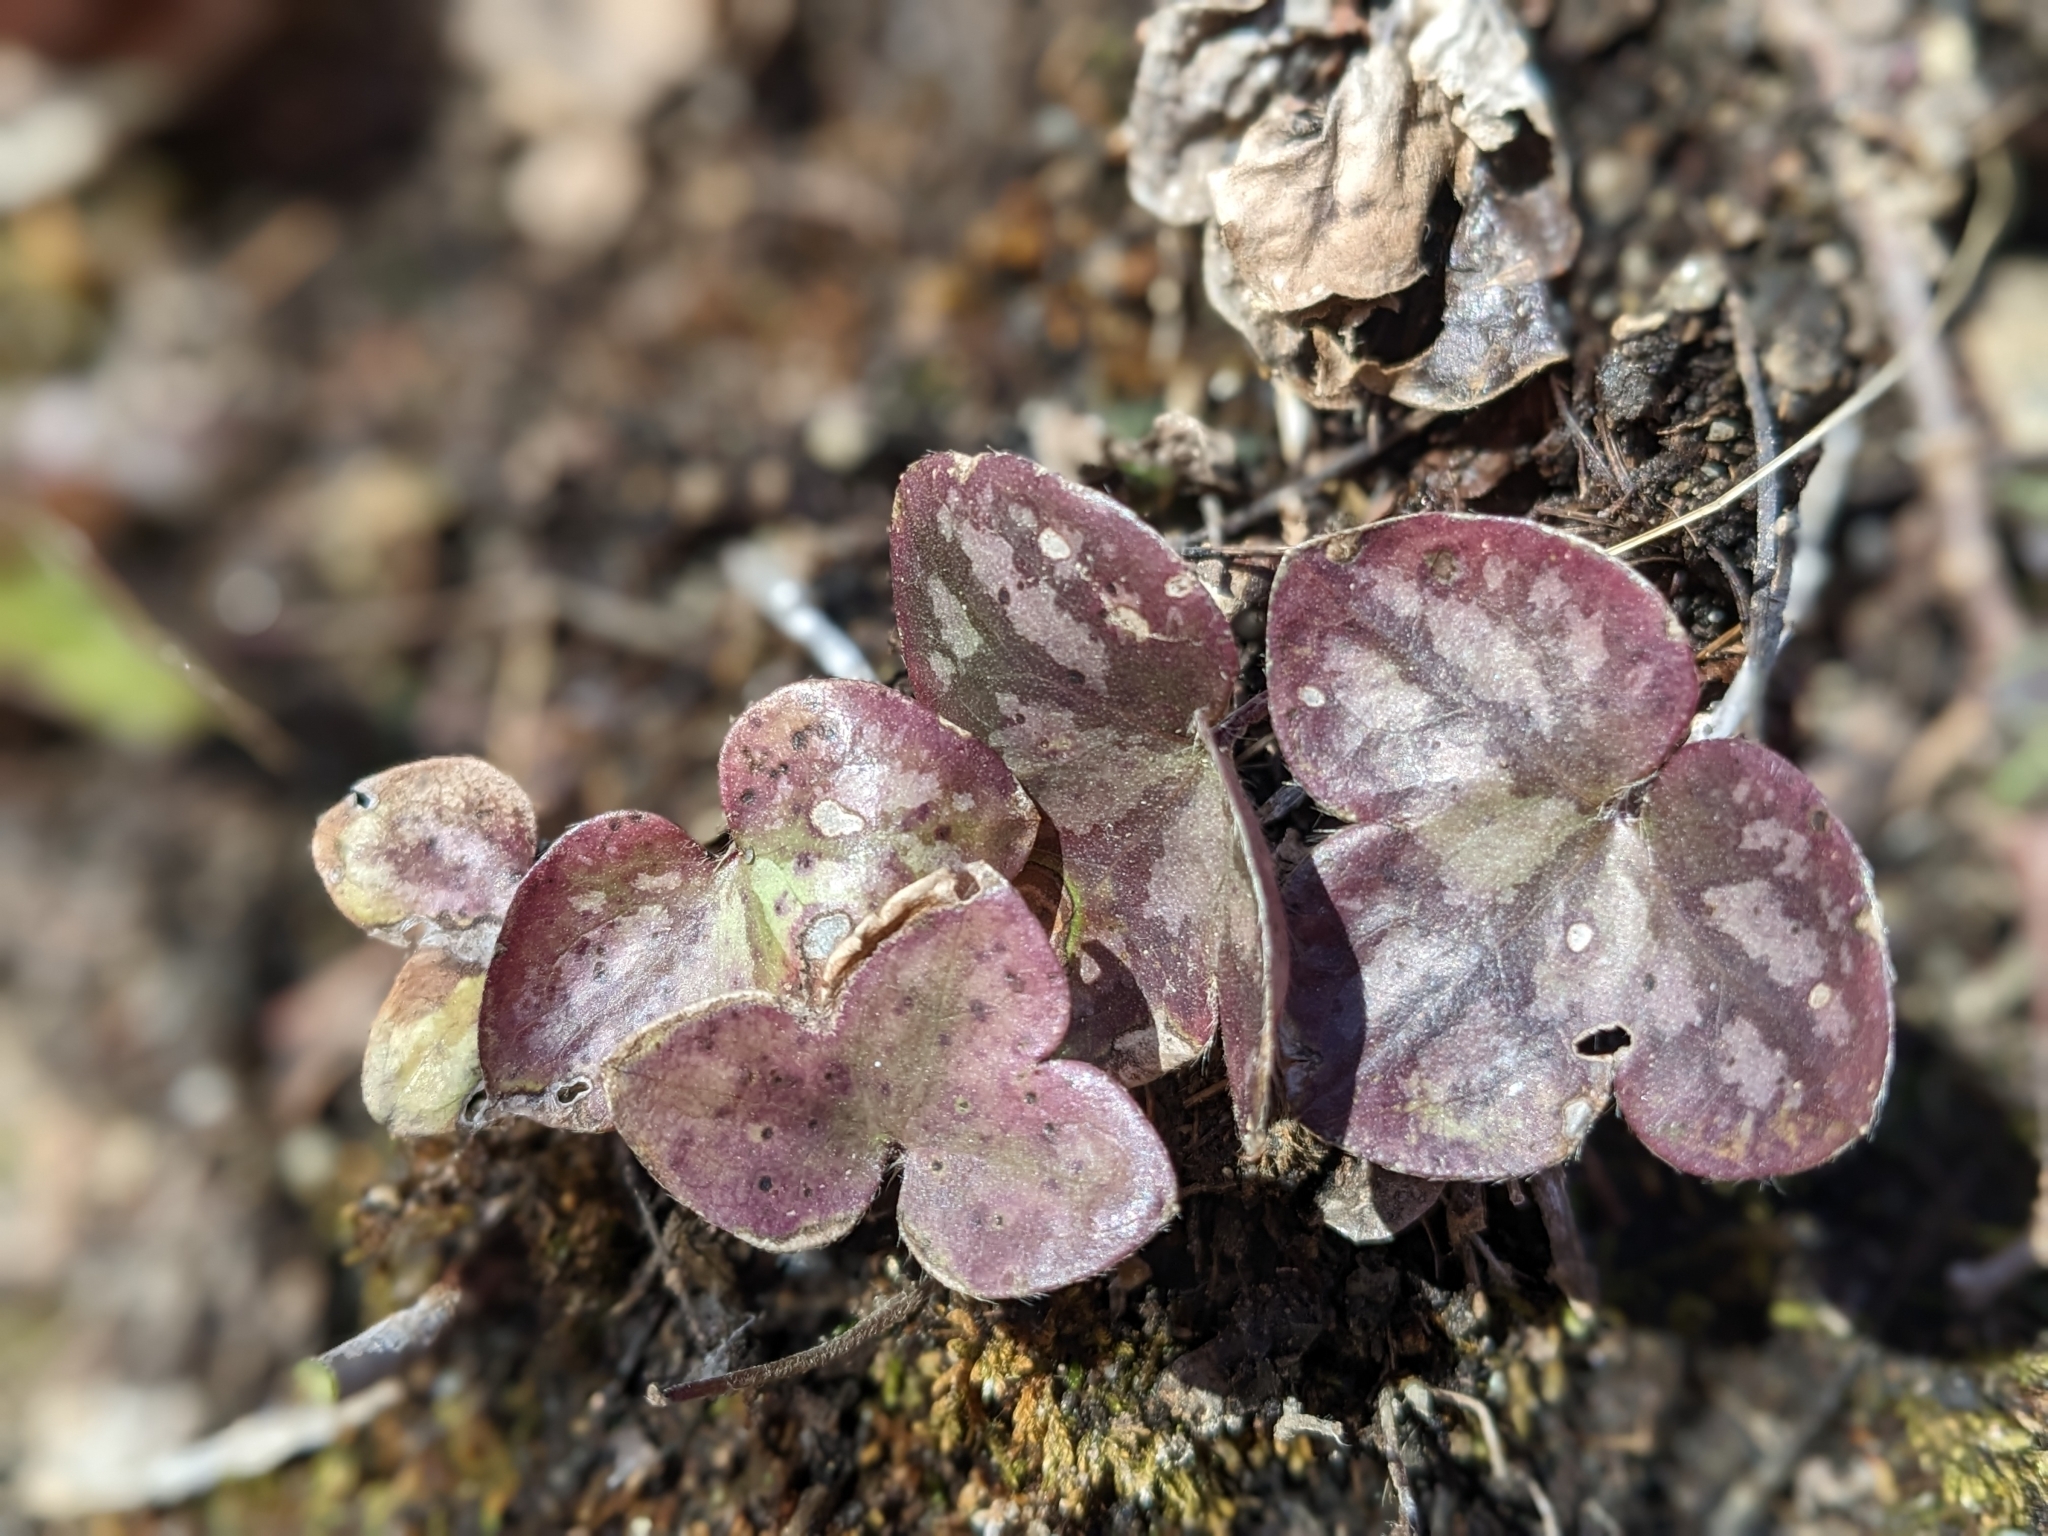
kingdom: Plantae
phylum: Tracheophyta
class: Magnoliopsida
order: Ranunculales
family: Ranunculaceae
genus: Hepatica
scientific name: Hepatica nobilis
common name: Liverleaf
